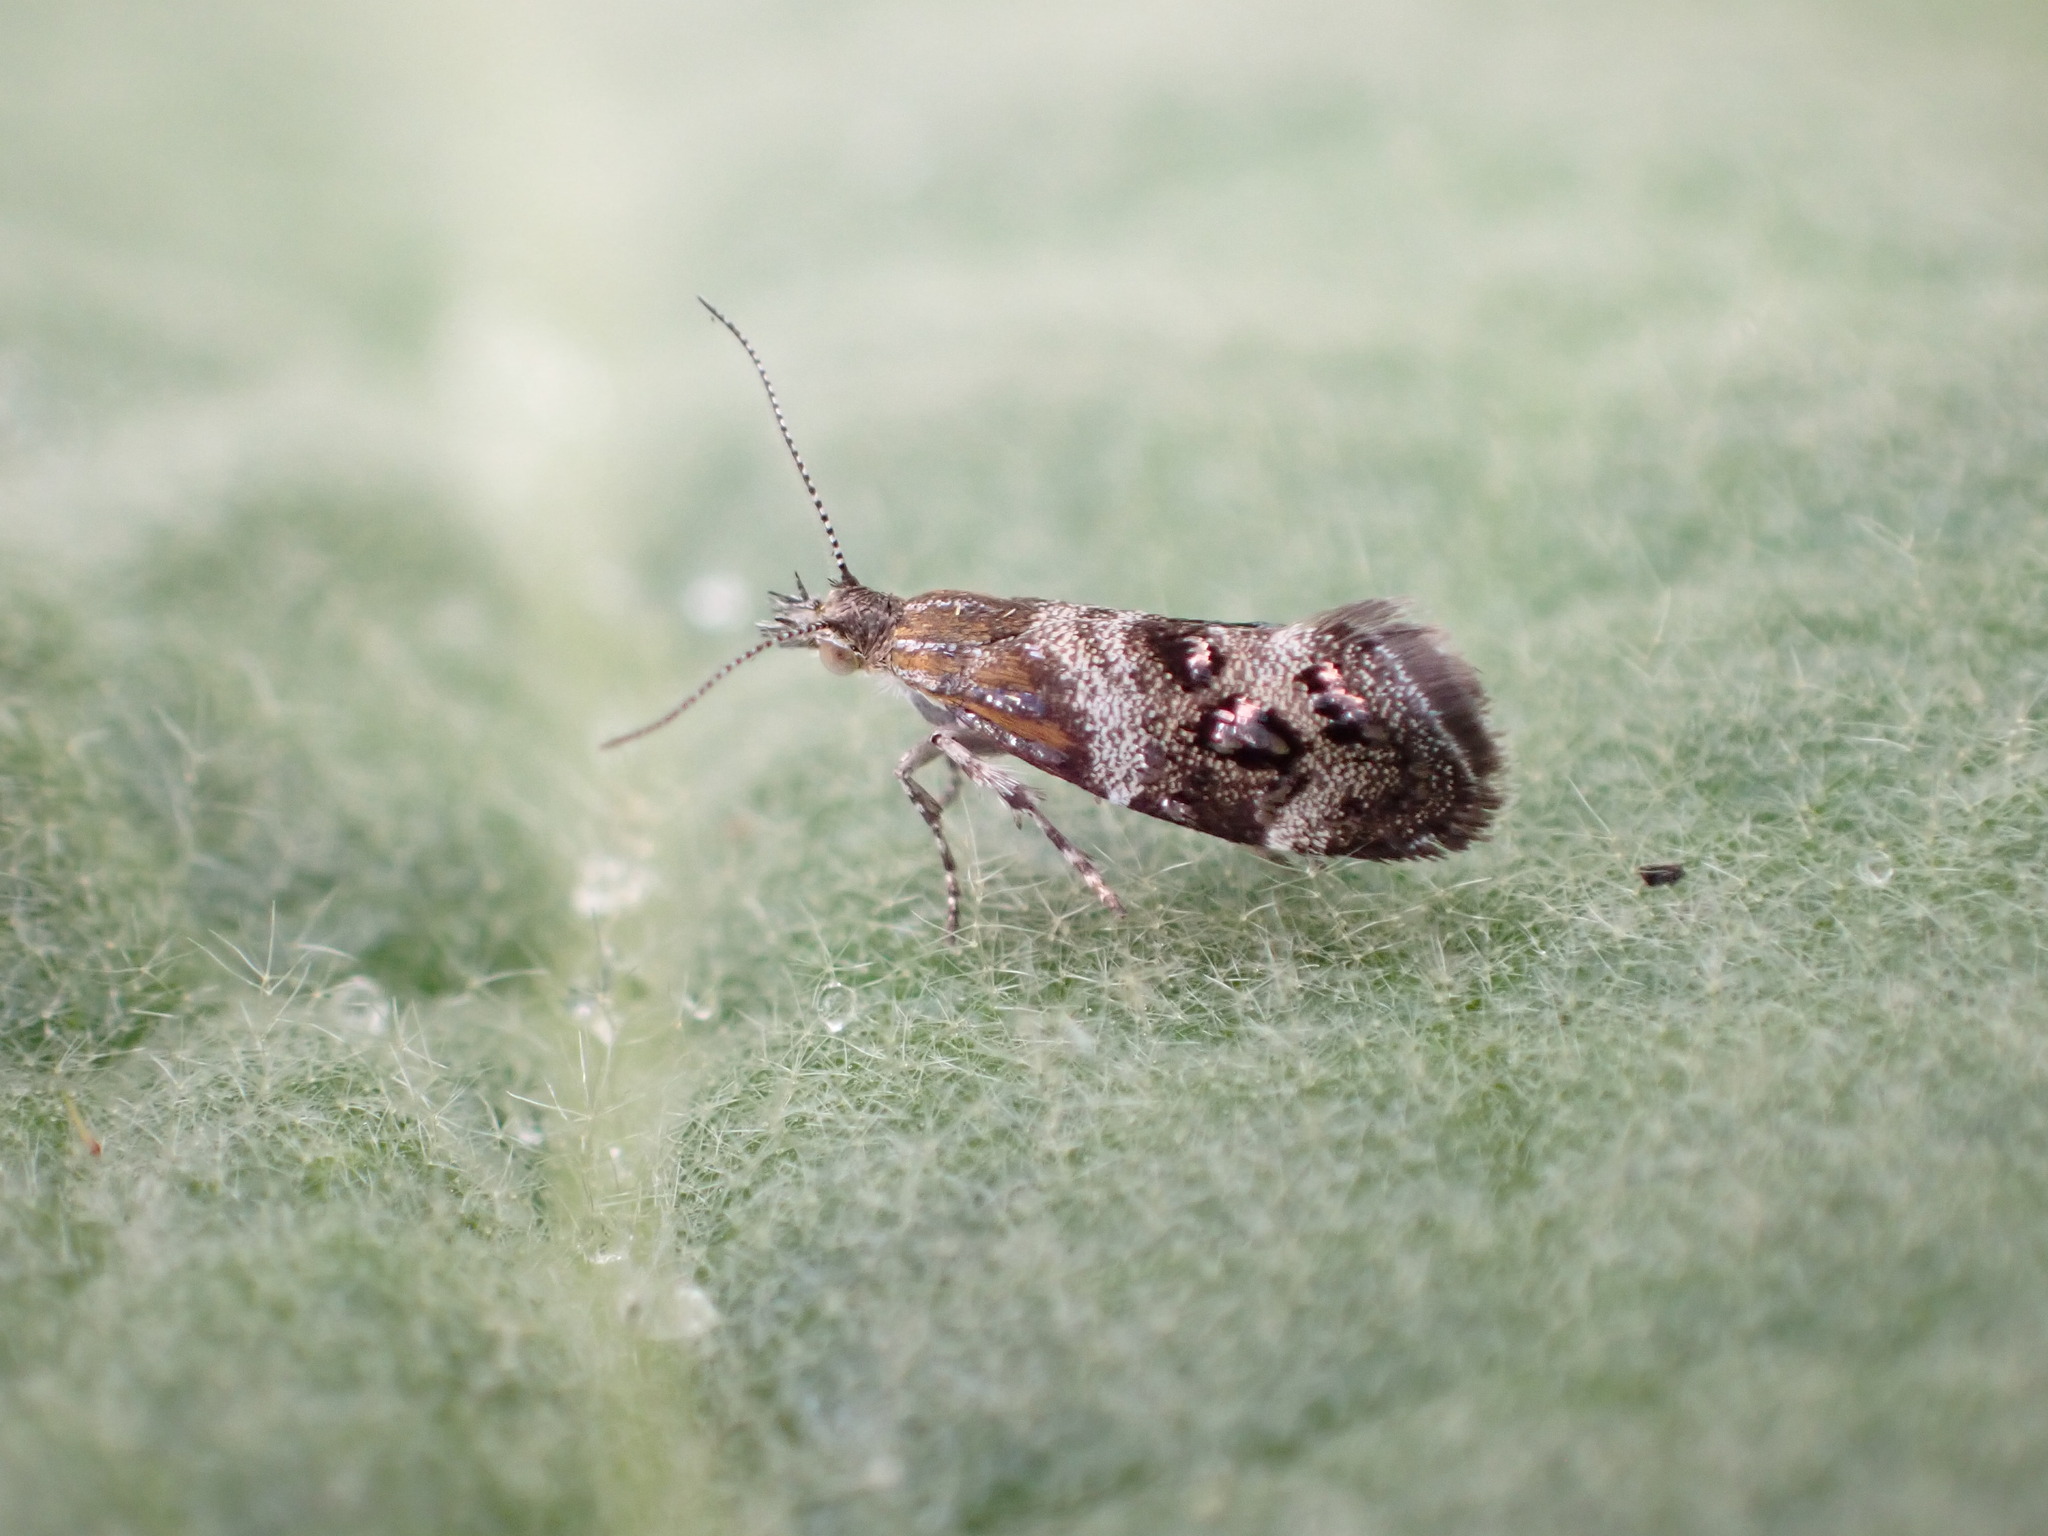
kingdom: Animalia
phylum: Arthropoda
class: Insecta
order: Lepidoptera
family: Choreutidae
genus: Tebenna
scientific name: Tebenna micalis
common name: Vagrant twitcher
